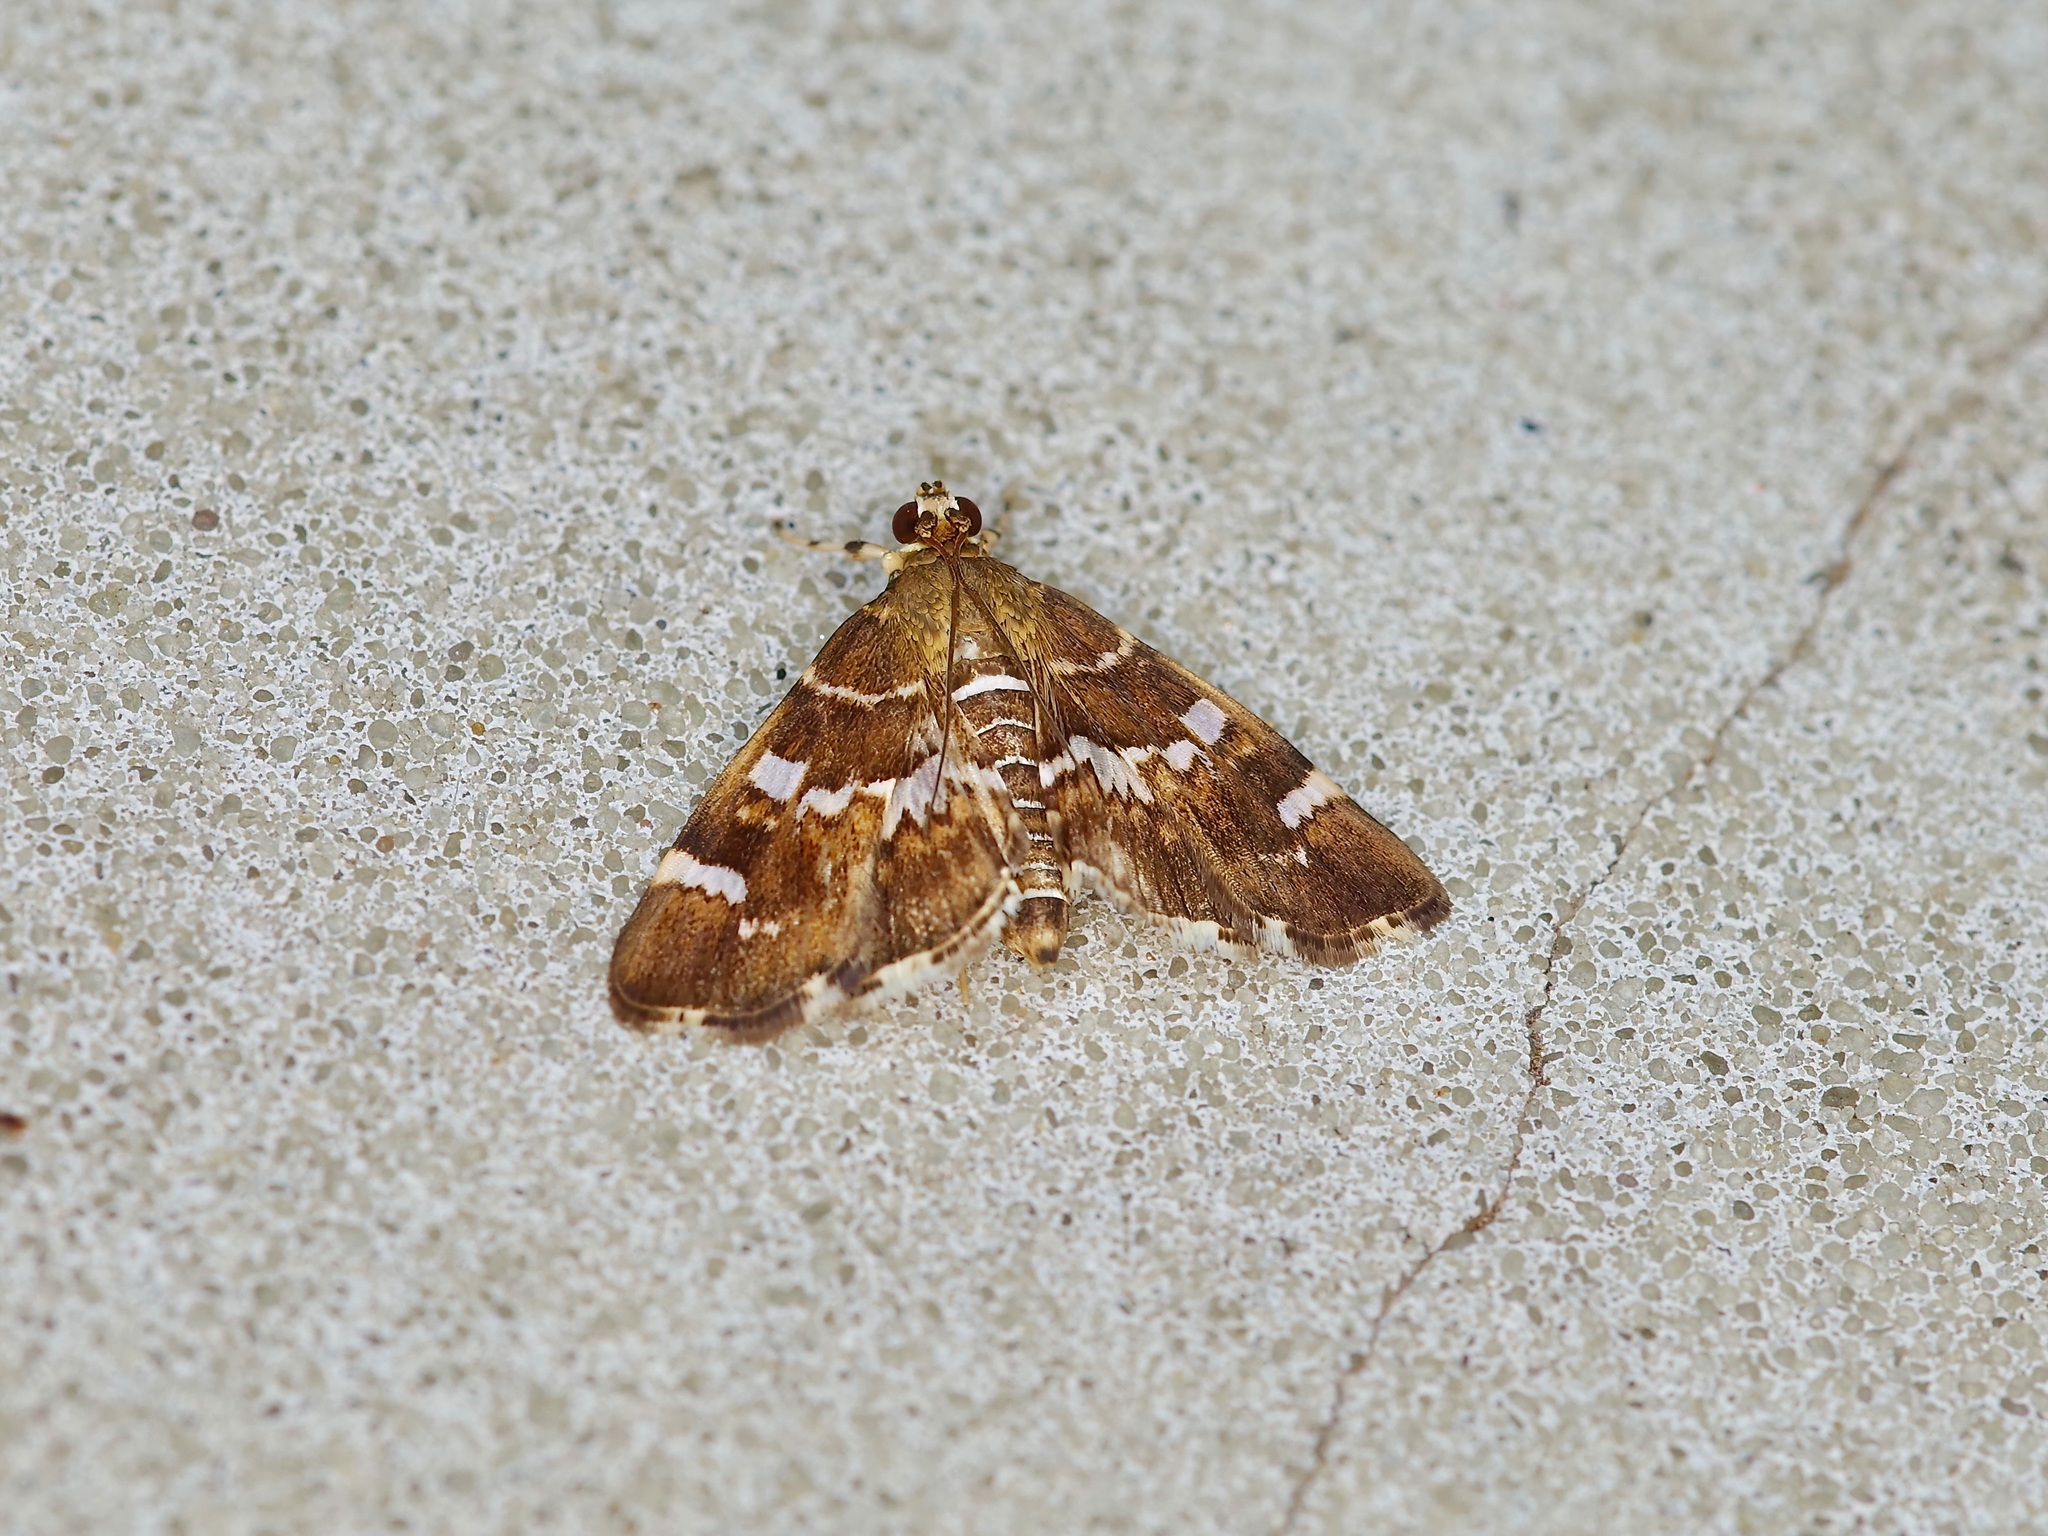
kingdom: Animalia
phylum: Arthropoda
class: Insecta
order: Lepidoptera
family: Crambidae
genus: Hymenia
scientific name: Hymenia perspectalis
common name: Spotted beet webworm
